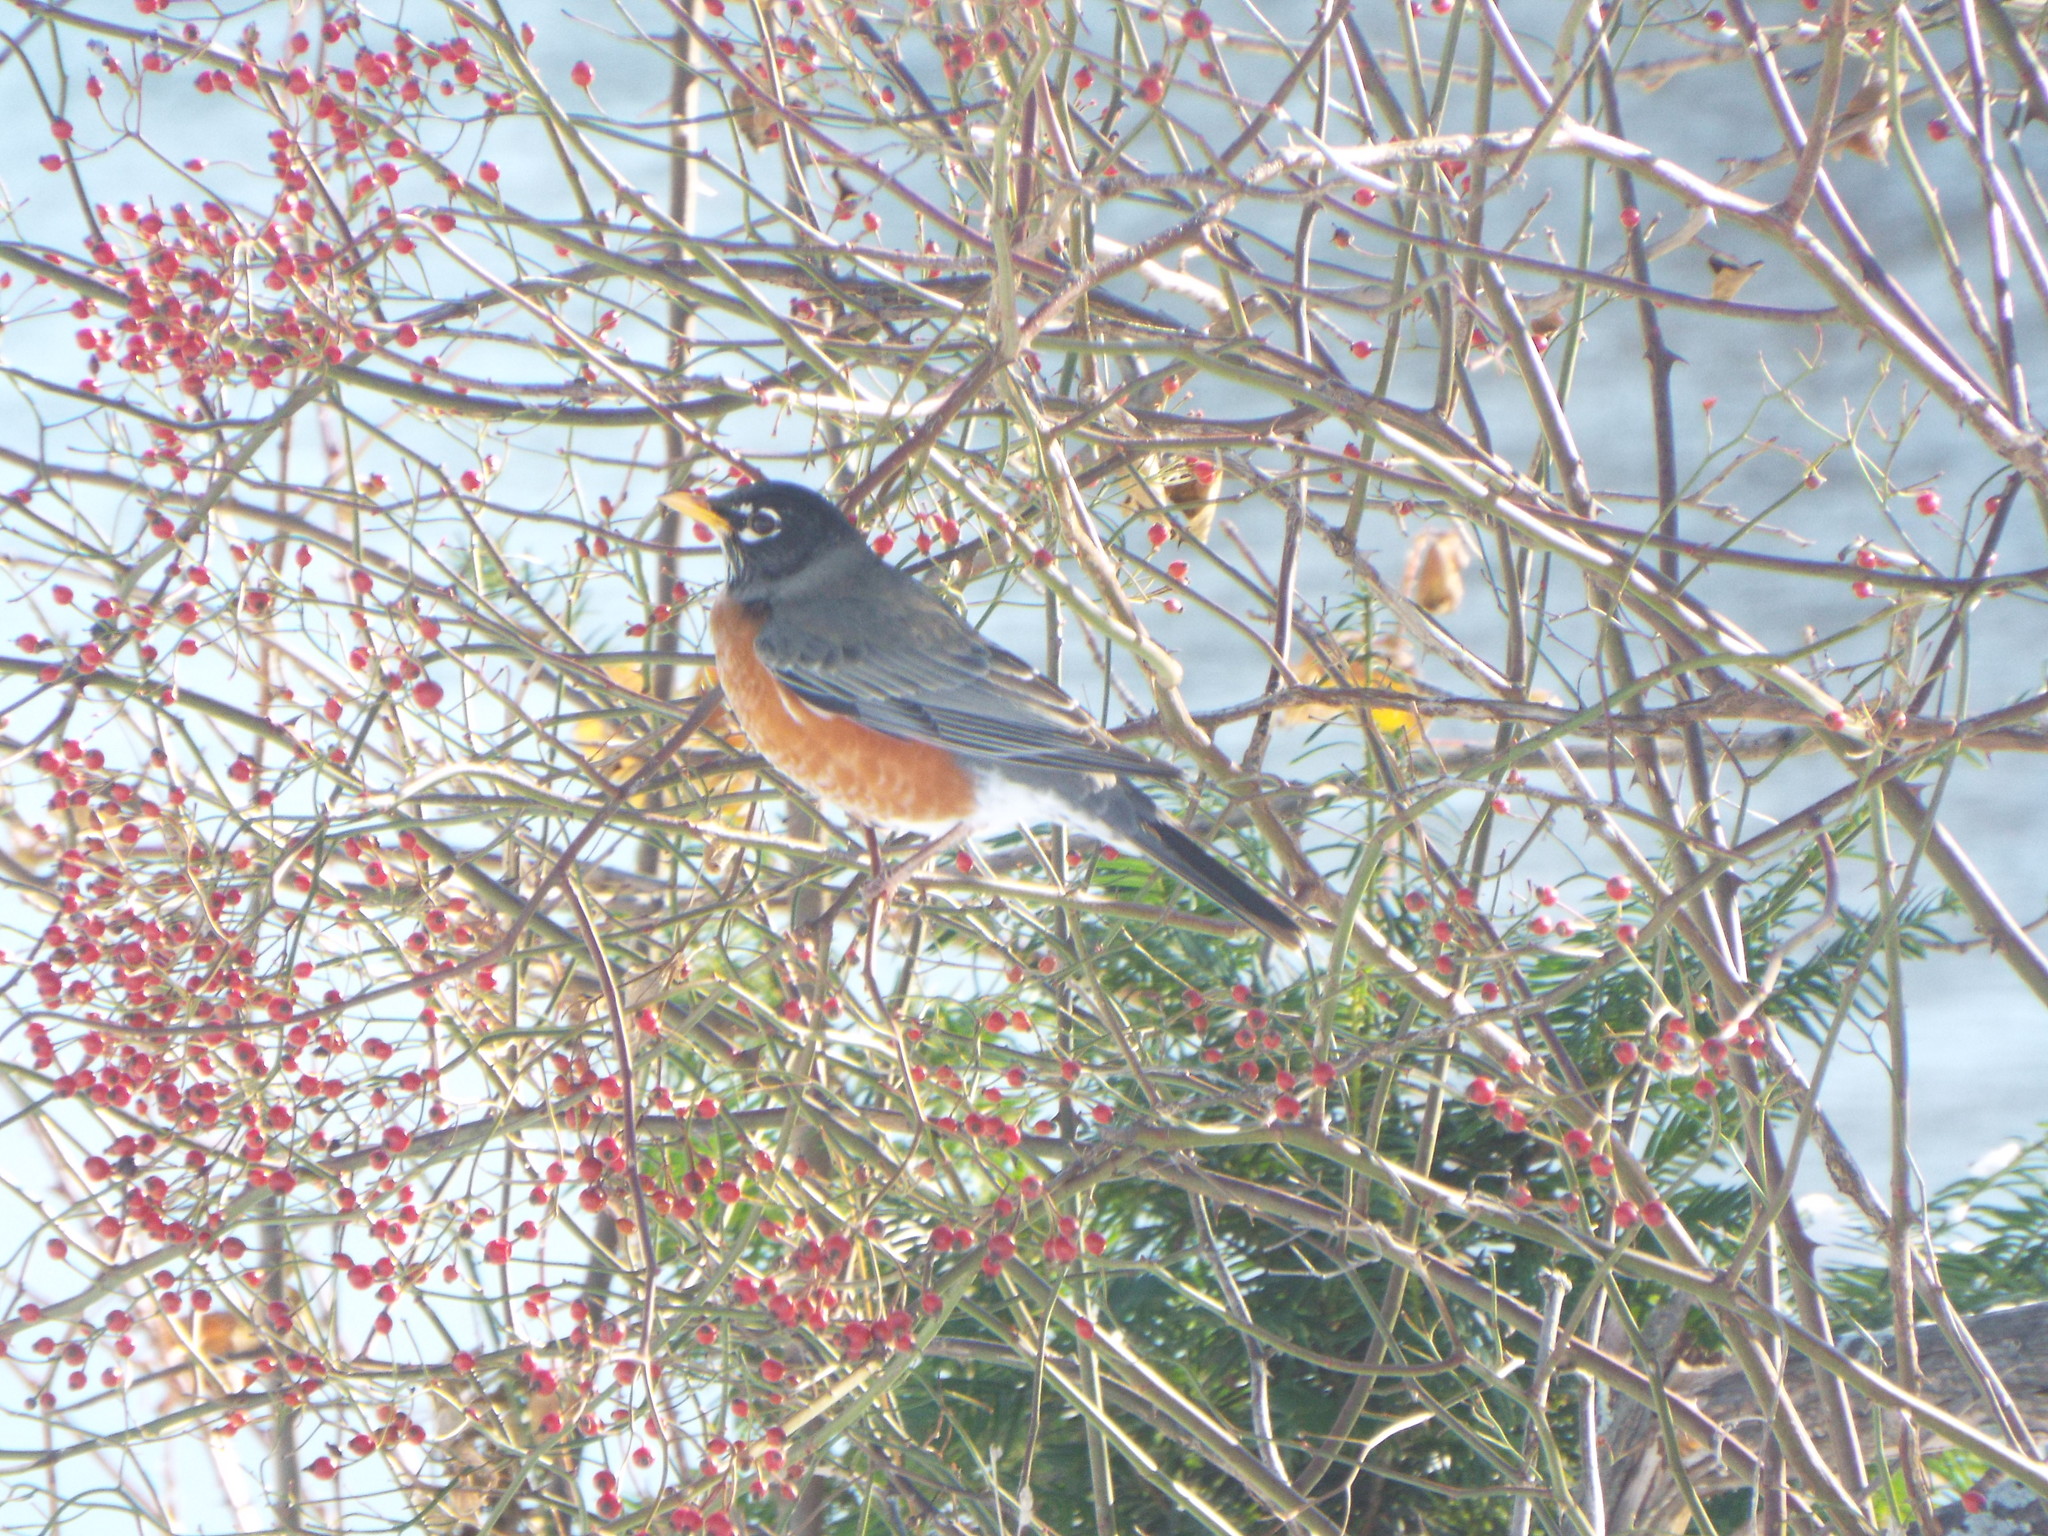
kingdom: Animalia
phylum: Chordata
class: Aves
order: Passeriformes
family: Turdidae
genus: Turdus
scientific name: Turdus migratorius
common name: American robin
